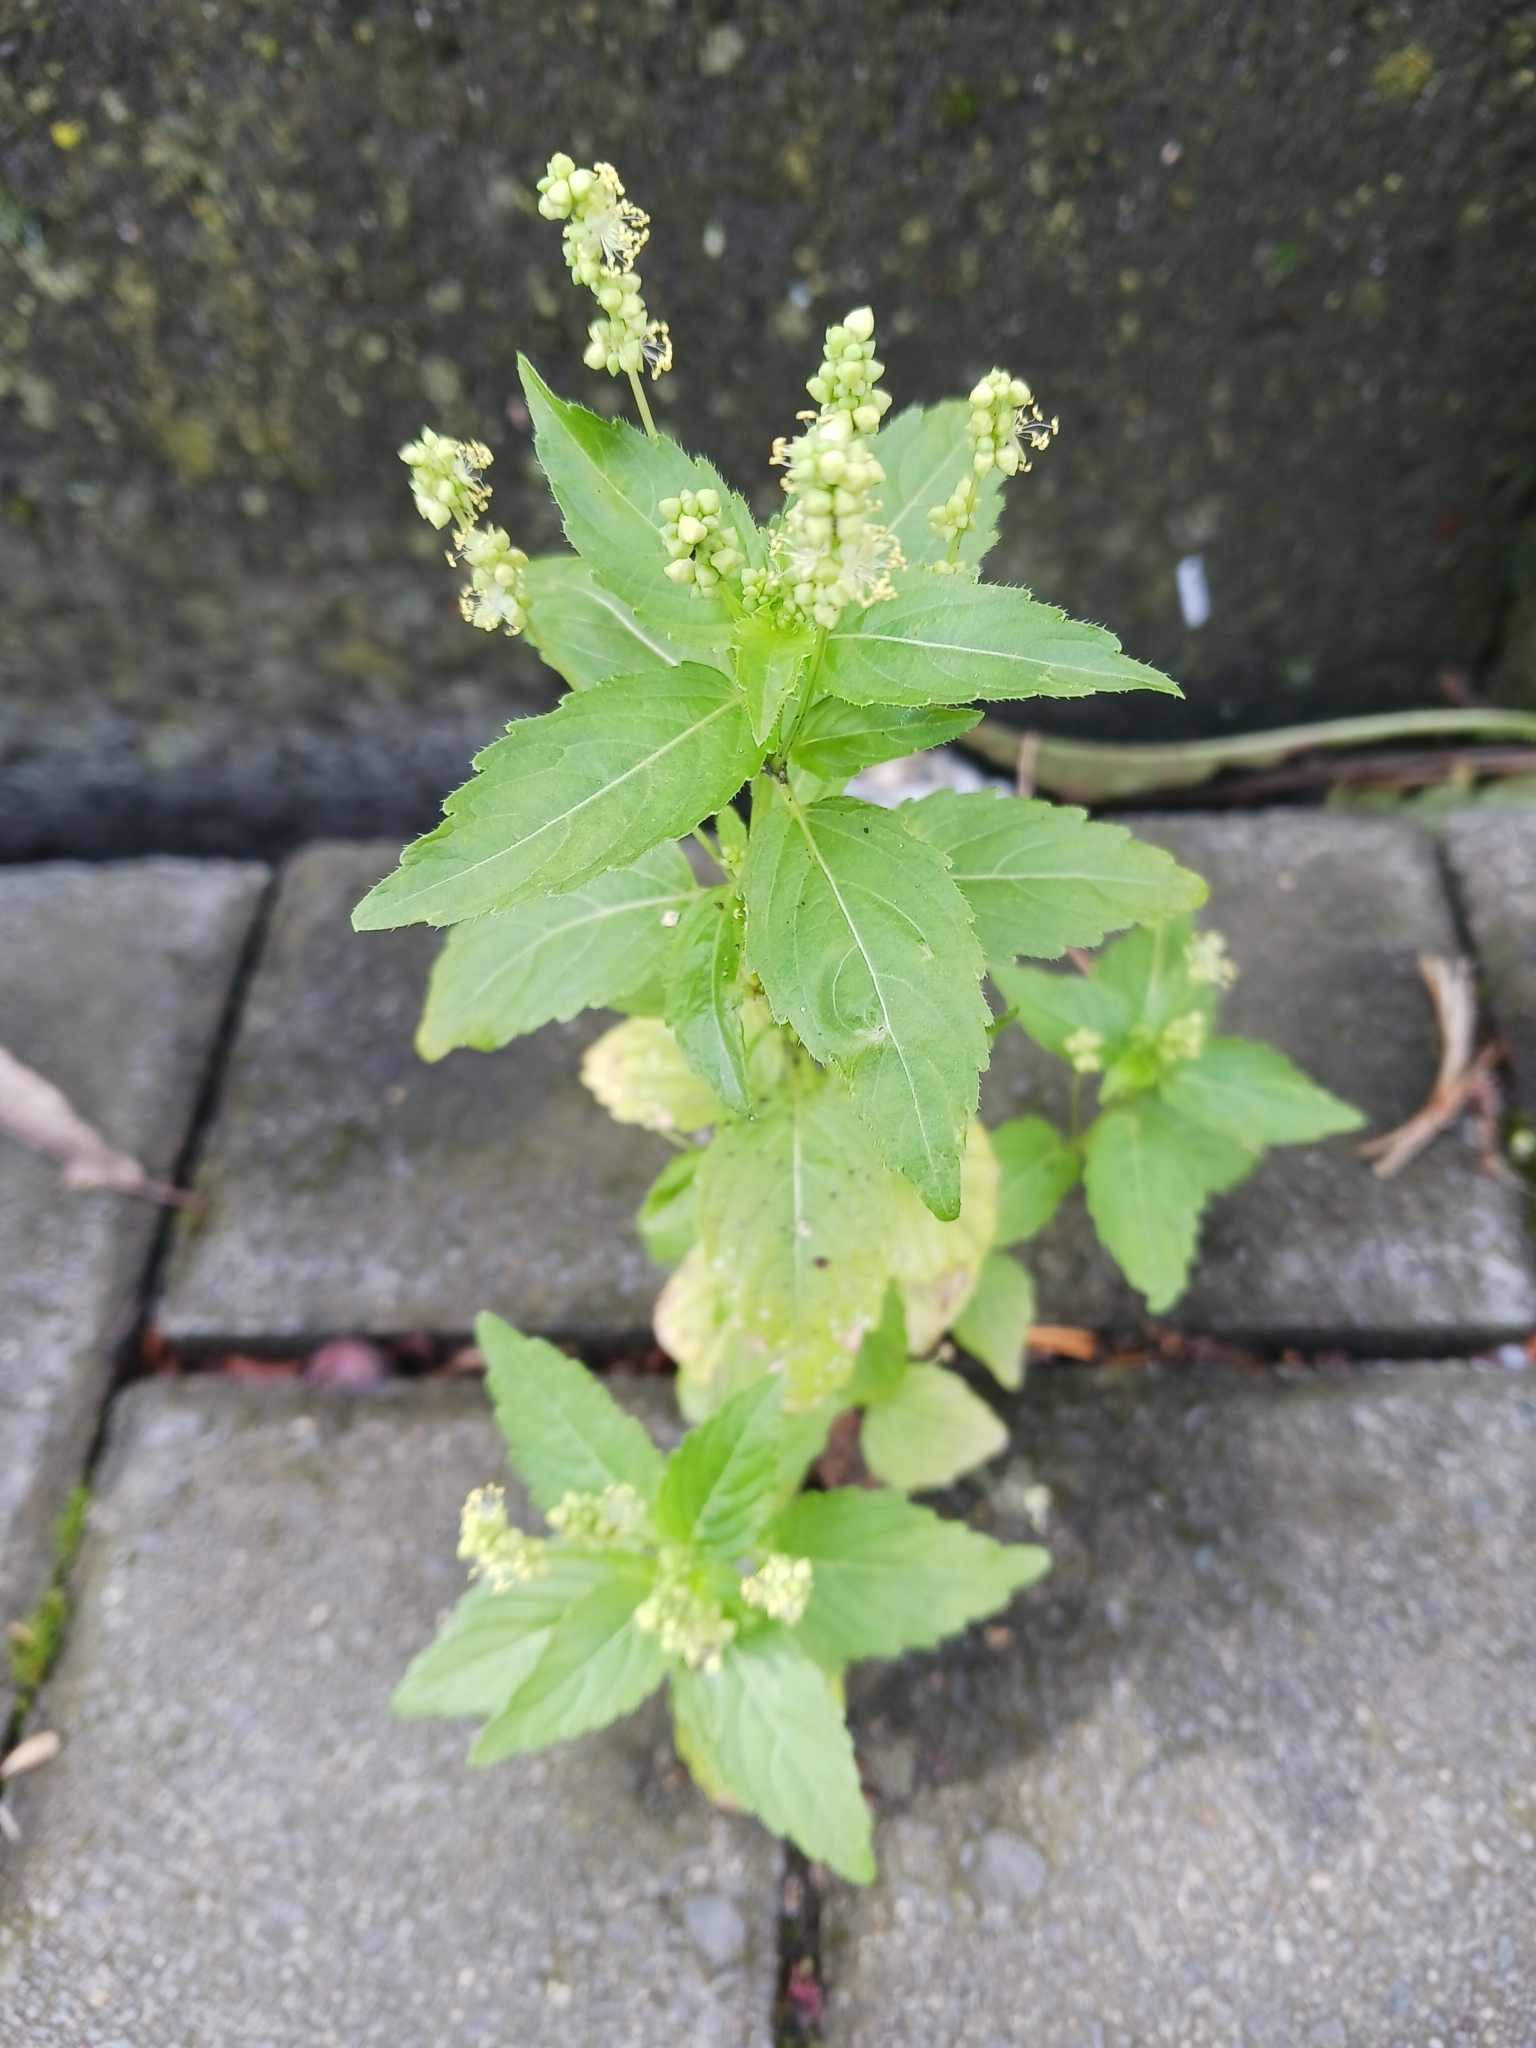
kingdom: Plantae
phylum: Tracheophyta
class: Magnoliopsida
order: Malpighiales
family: Euphorbiaceae
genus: Mercurialis
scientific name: Mercurialis annua
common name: Annual mercury
